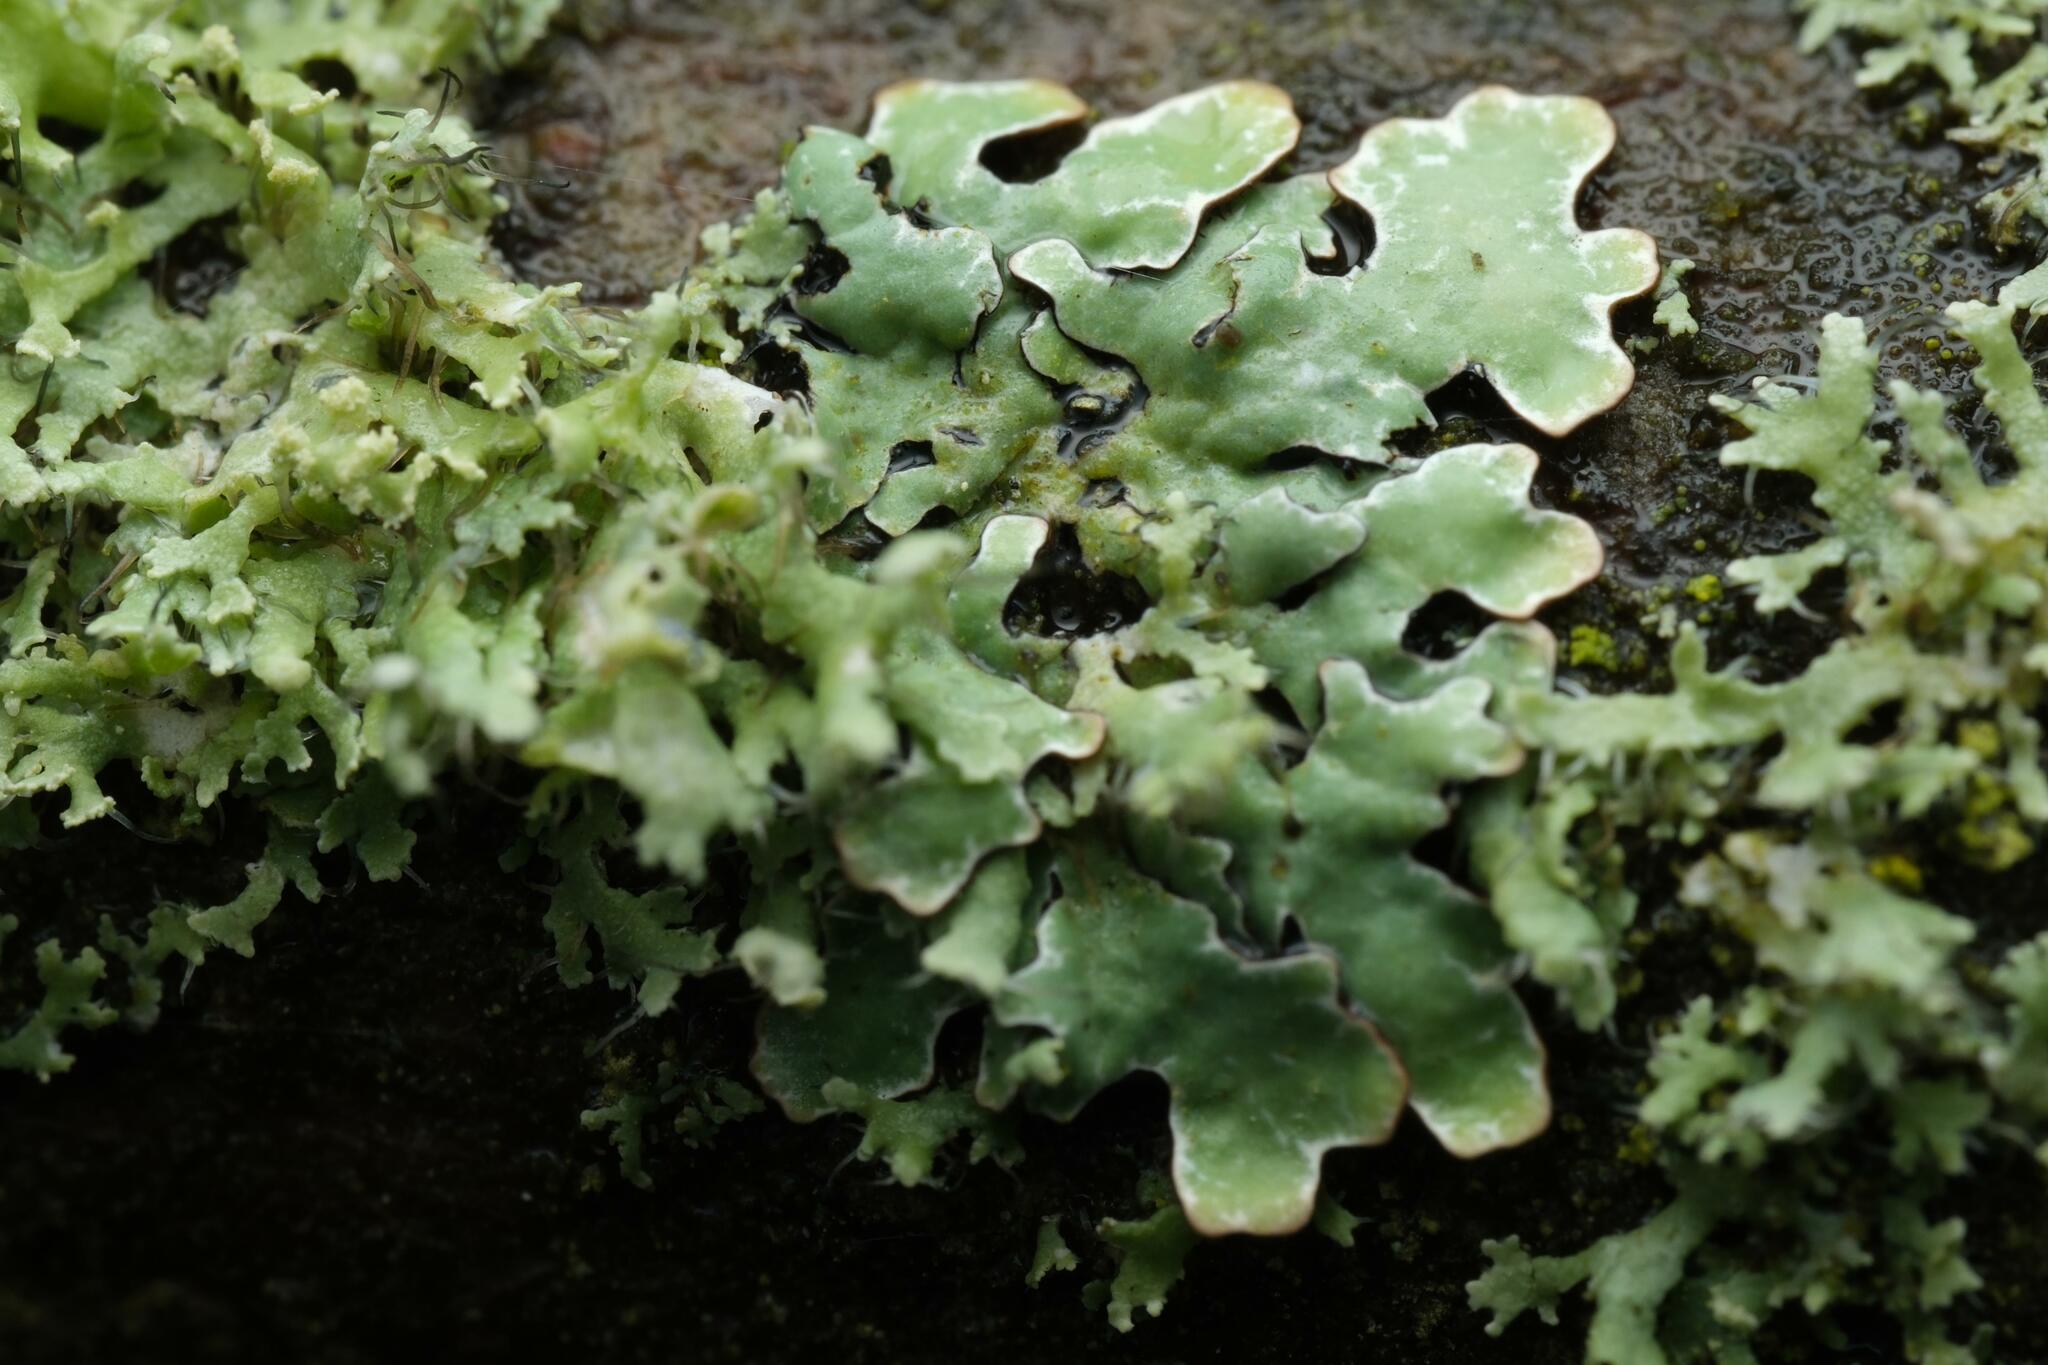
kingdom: Fungi
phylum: Ascomycota
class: Lecanoromycetes
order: Lecanorales
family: Parmeliaceae
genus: Parmelia
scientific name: Parmelia sulcata
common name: Netted shield lichen
